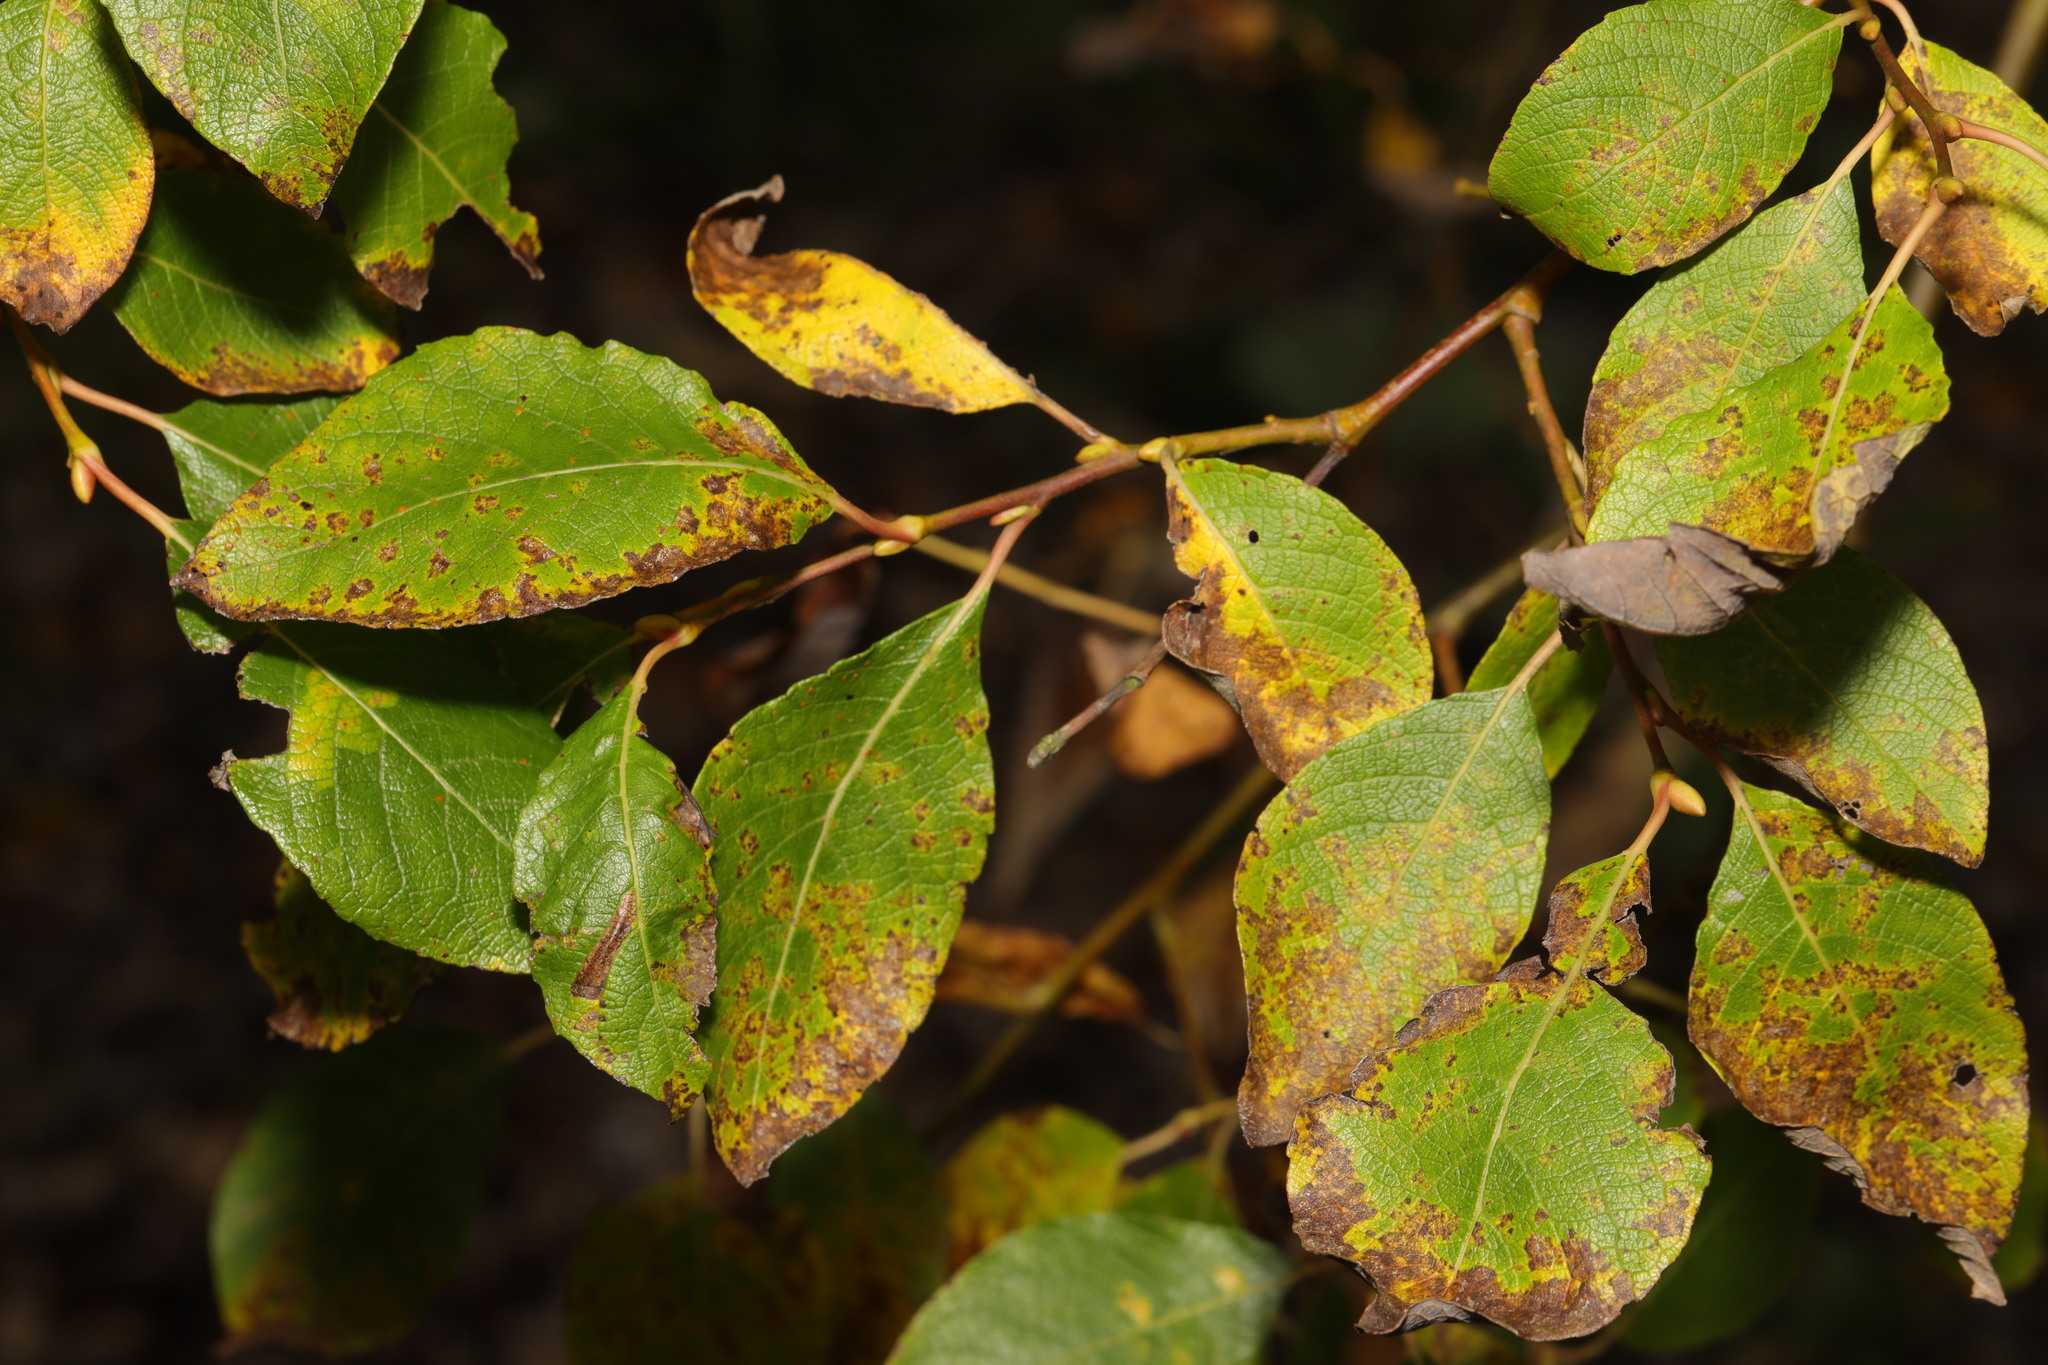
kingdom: Plantae
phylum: Tracheophyta
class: Magnoliopsida
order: Malpighiales
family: Salicaceae
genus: Salix
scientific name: Salix caprea
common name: Goat willow
